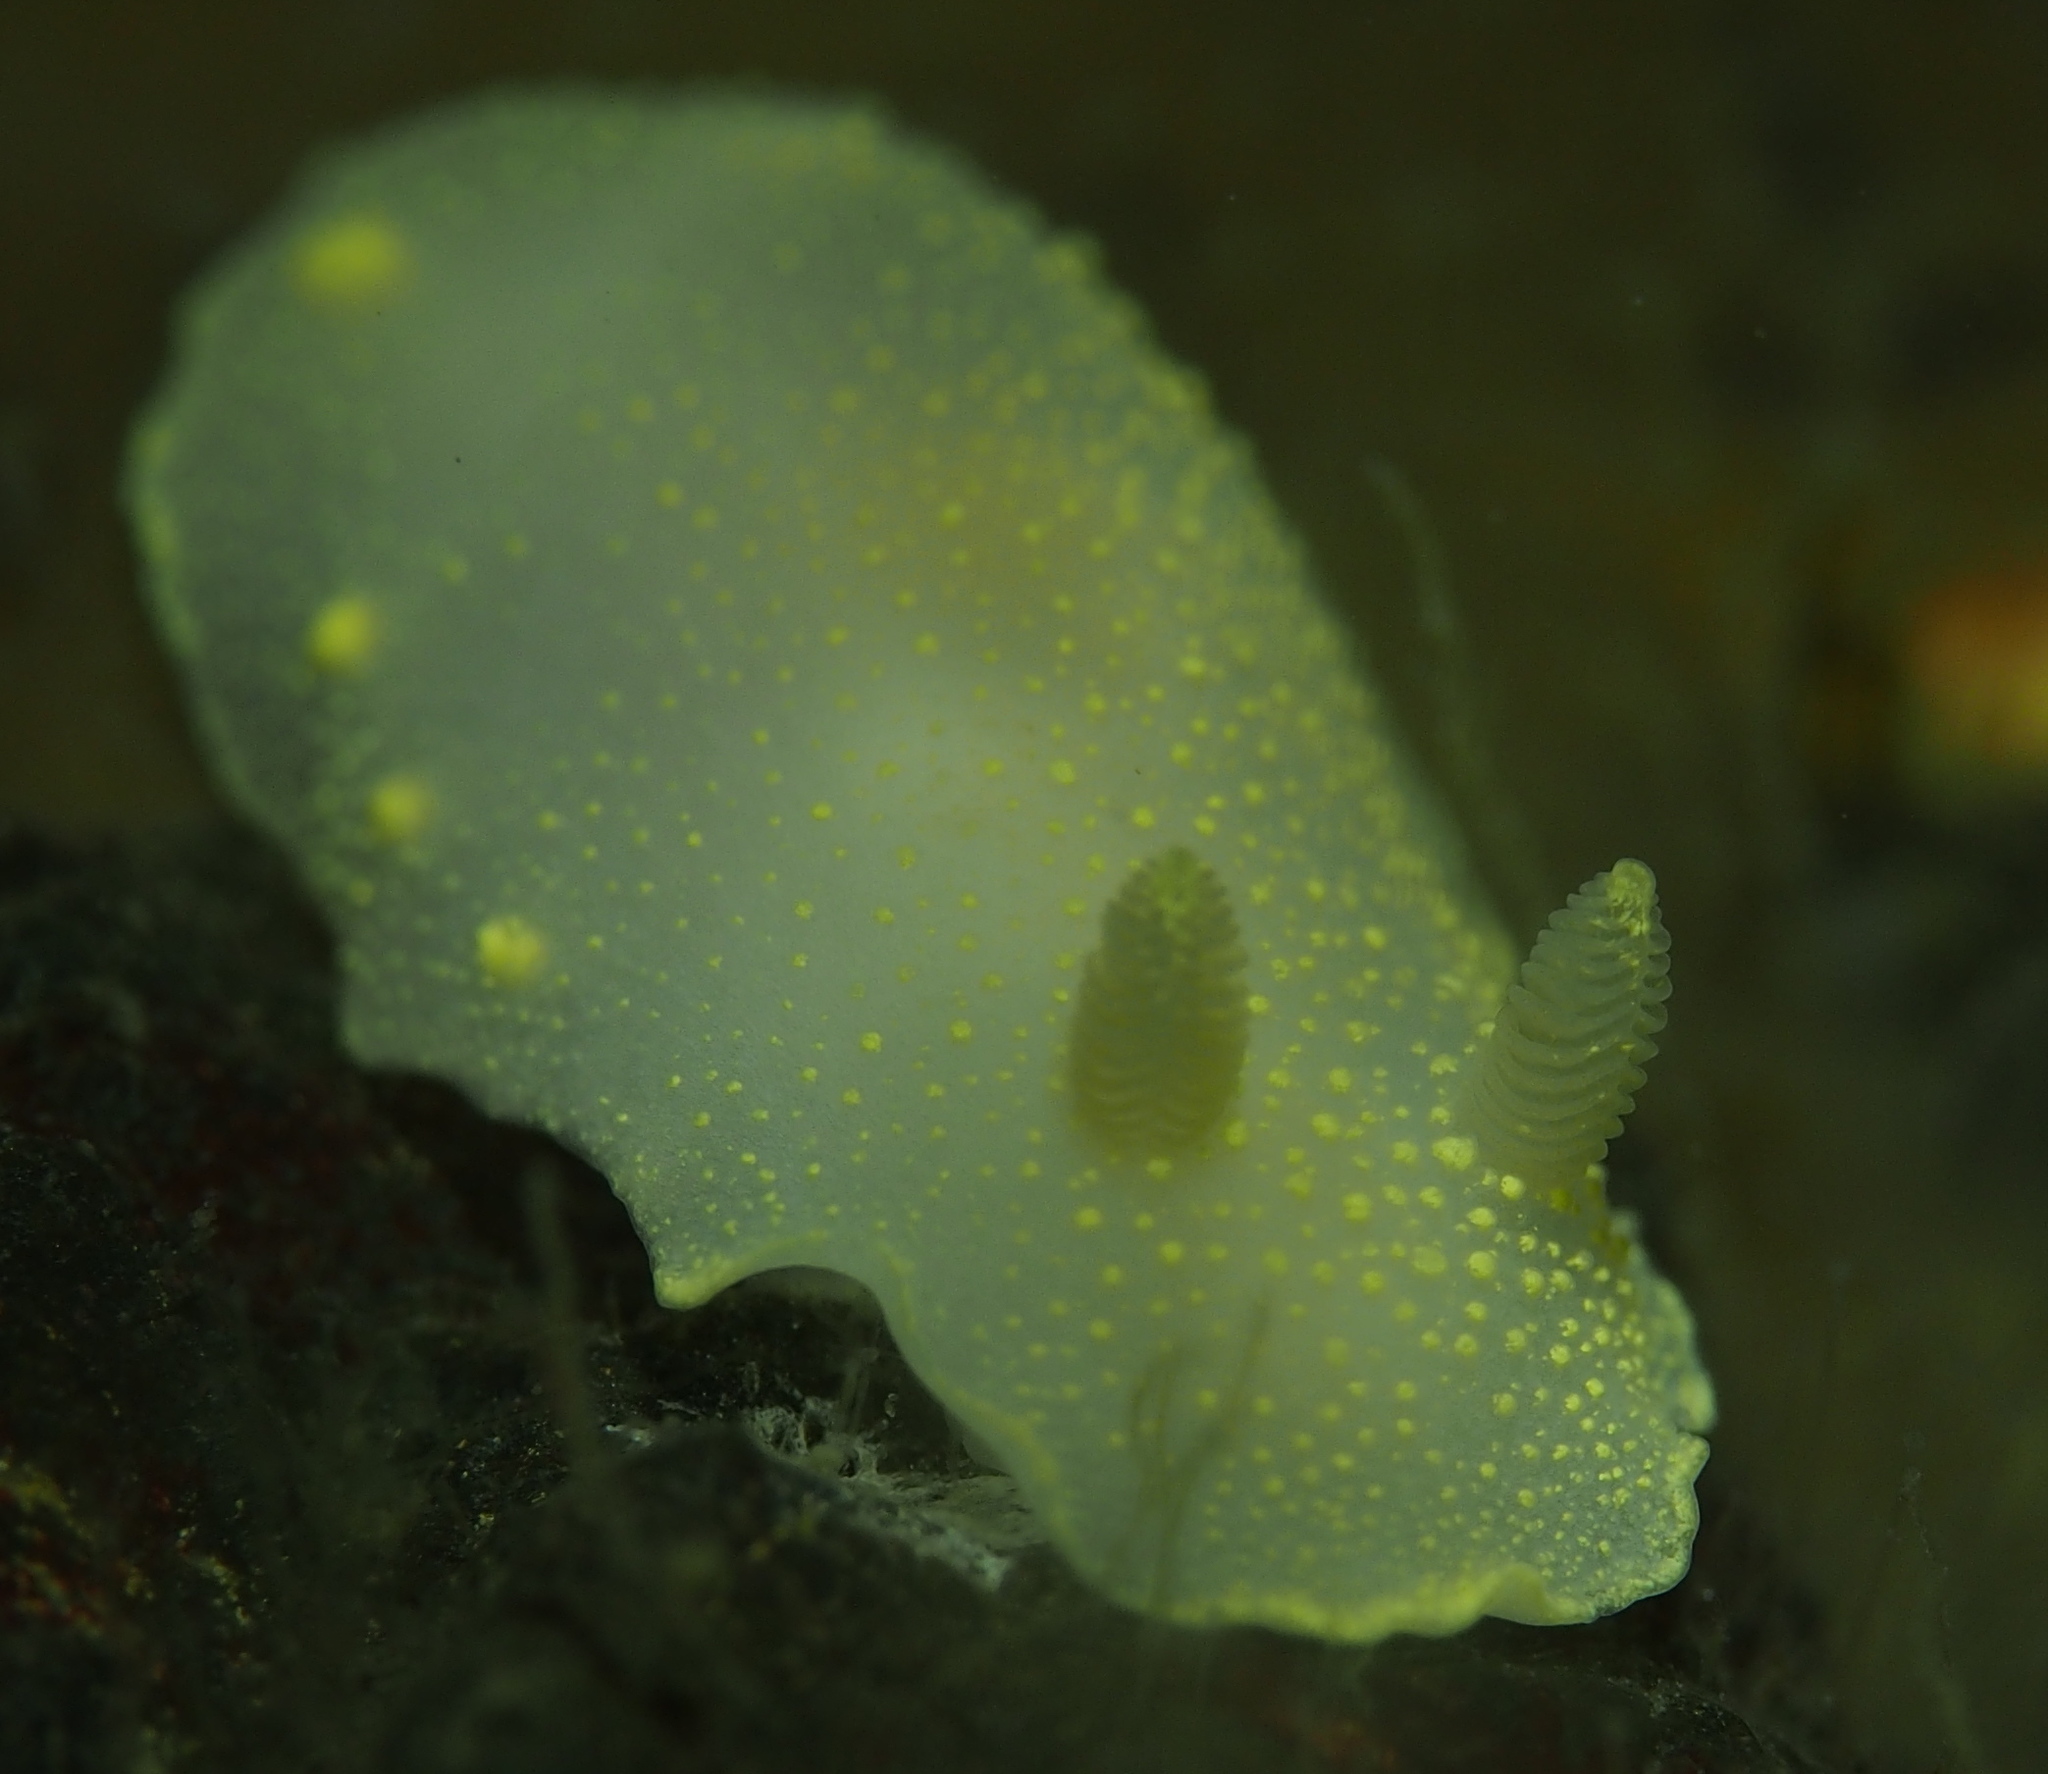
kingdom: Animalia
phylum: Mollusca
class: Gastropoda
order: Nudibranchia
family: Cadlinidae
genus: Cadlina
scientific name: Cadlina laevis
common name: White atlantic cadlina
